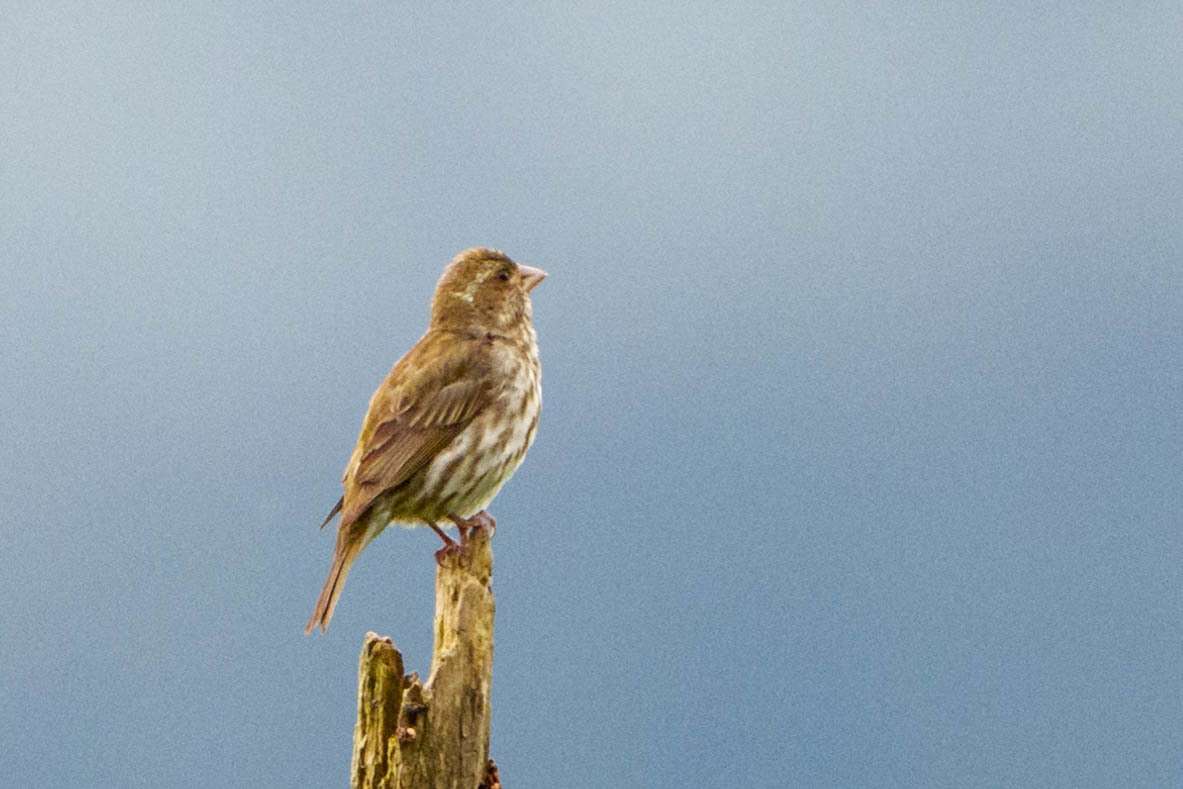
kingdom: Animalia
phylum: Chordata
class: Aves
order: Passeriformes
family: Fringillidae
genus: Haemorhous
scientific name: Haemorhous purpureus
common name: Purple finch
